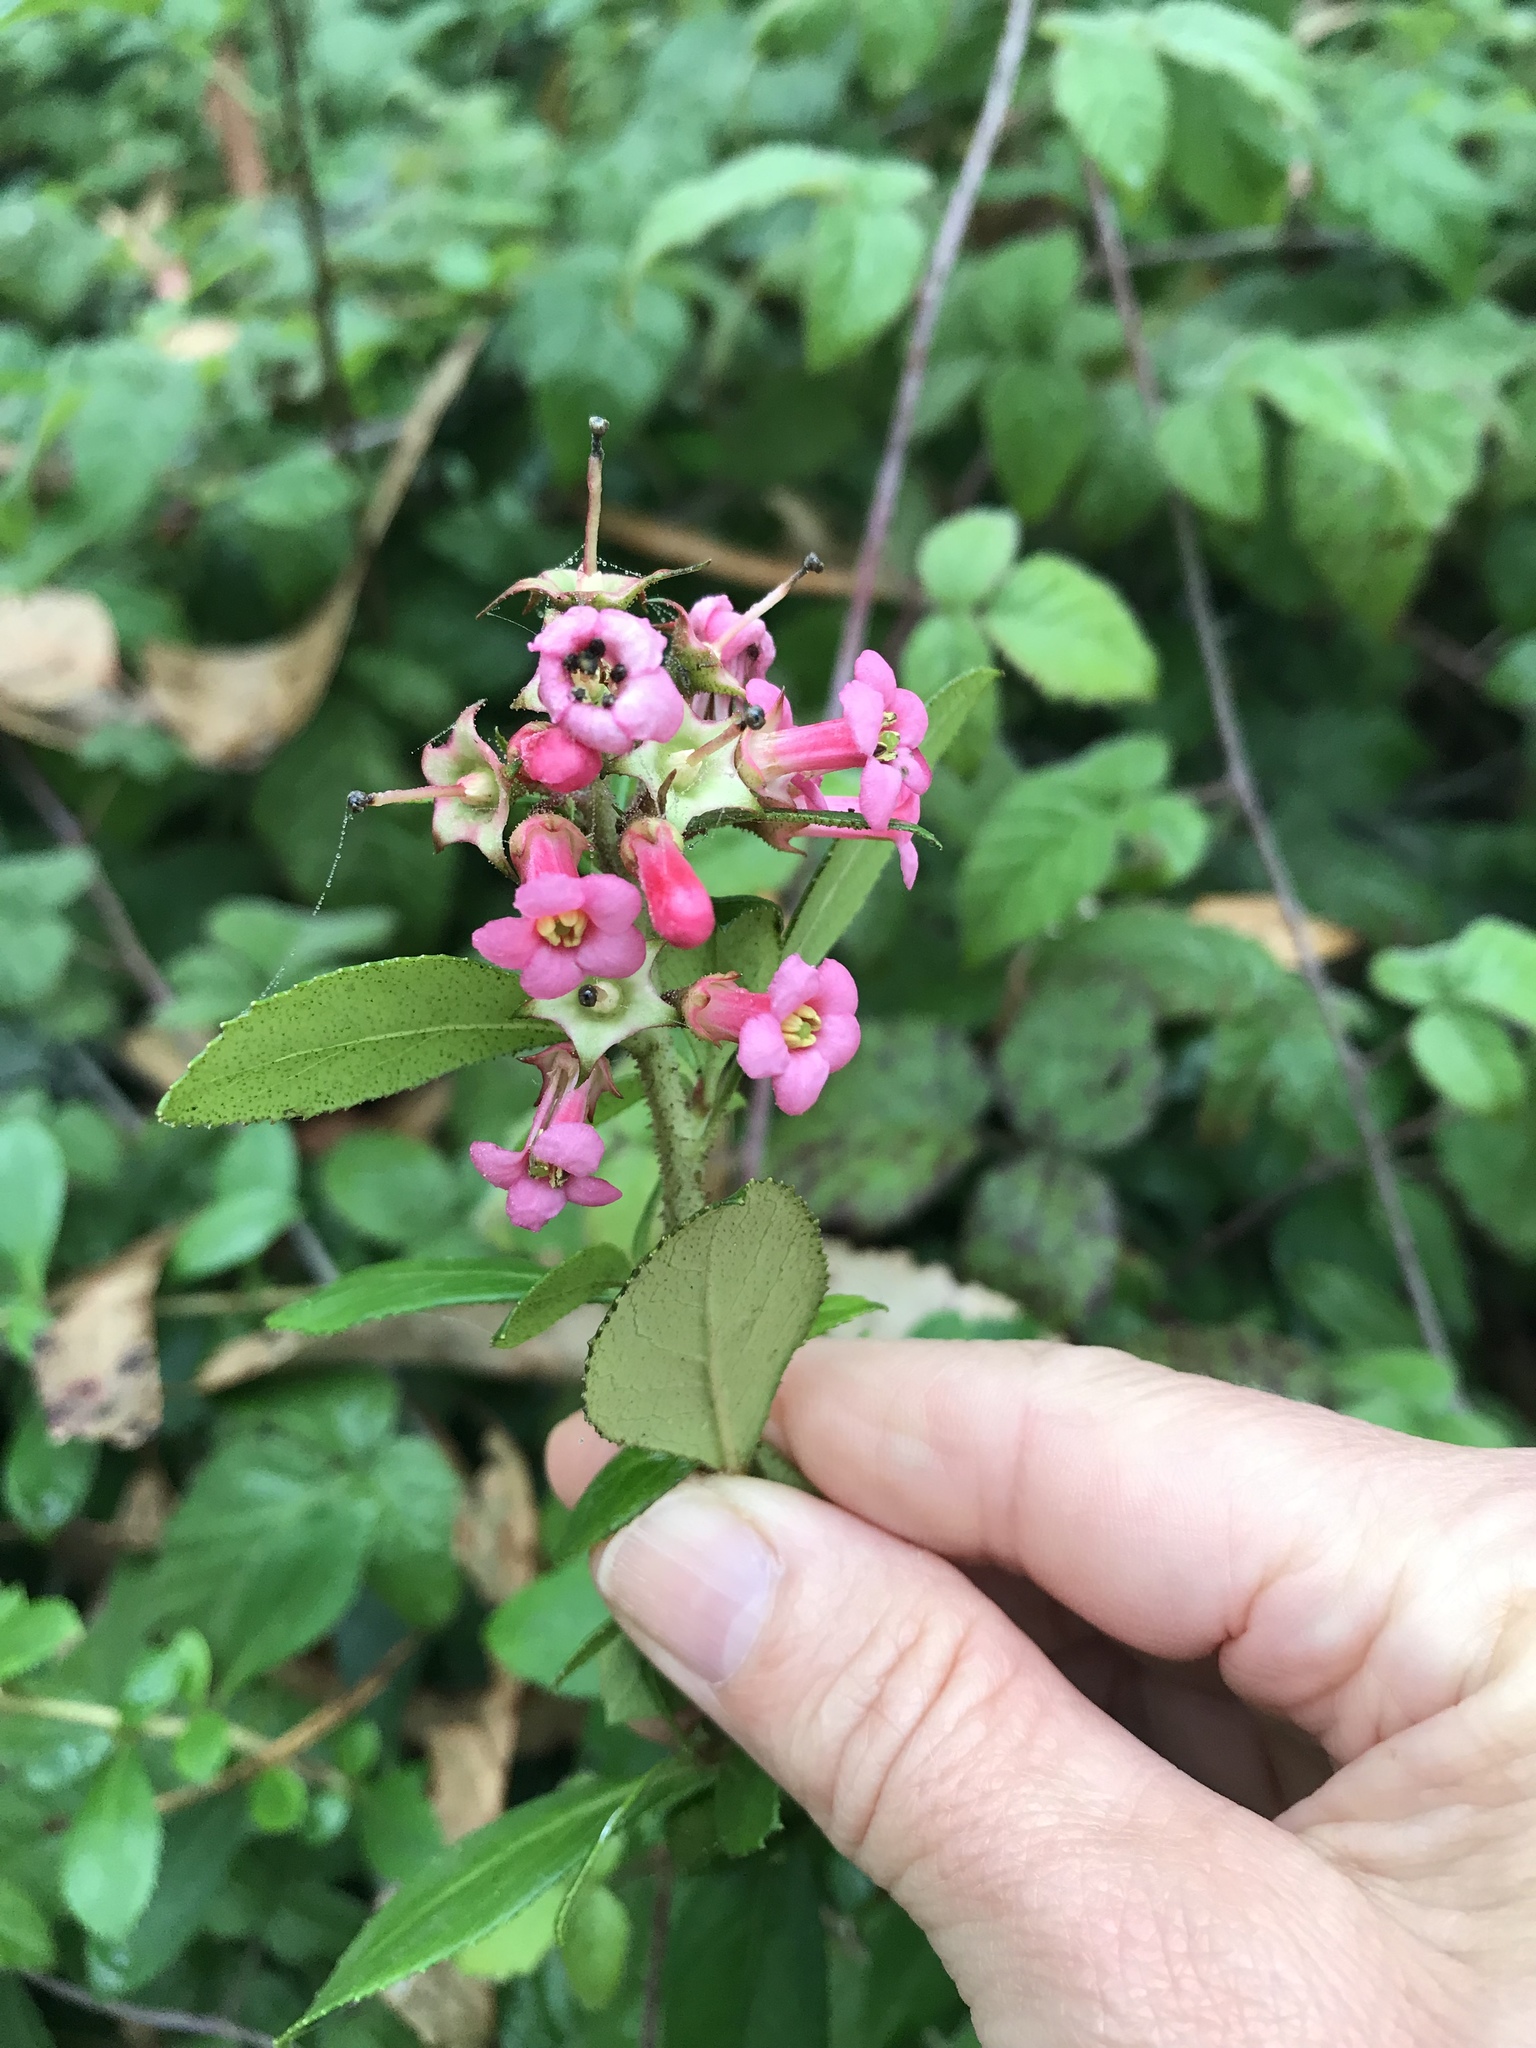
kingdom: Plantae
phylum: Tracheophyta
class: Magnoliopsida
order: Escalloniales
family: Escalloniaceae
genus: Escallonia
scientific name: Escallonia rubra
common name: Redclaws
